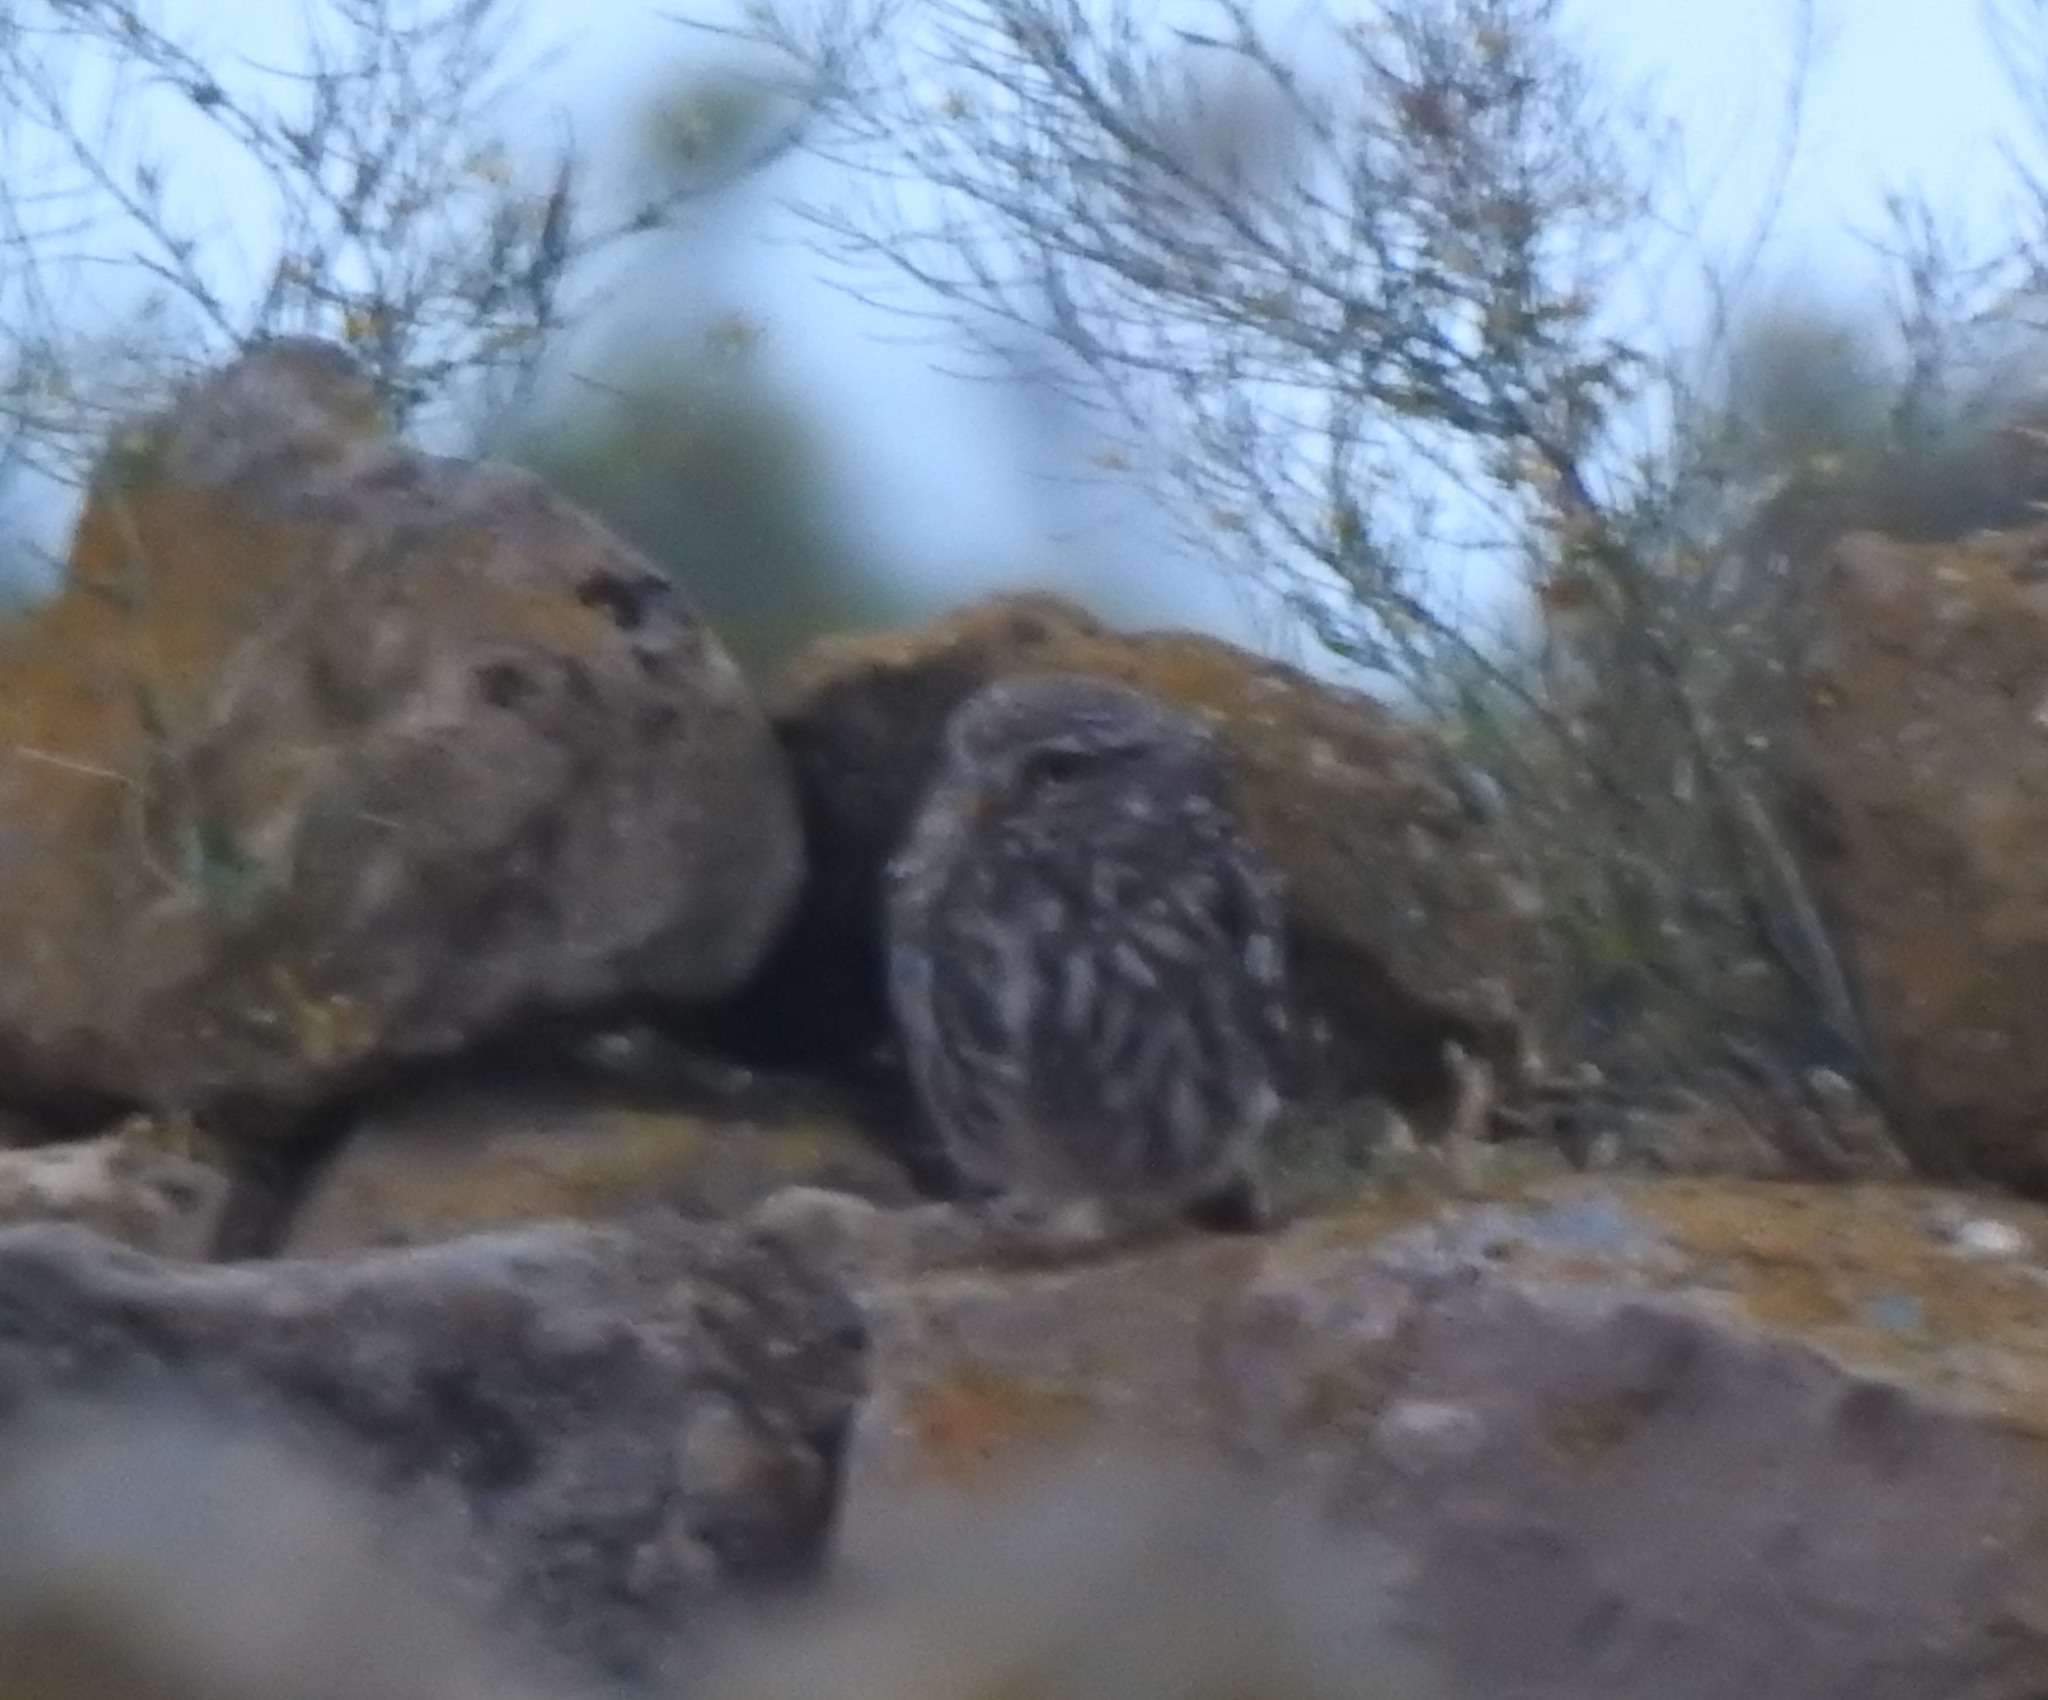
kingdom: Animalia
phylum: Chordata
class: Aves
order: Strigiformes
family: Strigidae
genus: Athene
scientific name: Athene noctua
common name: Little owl
